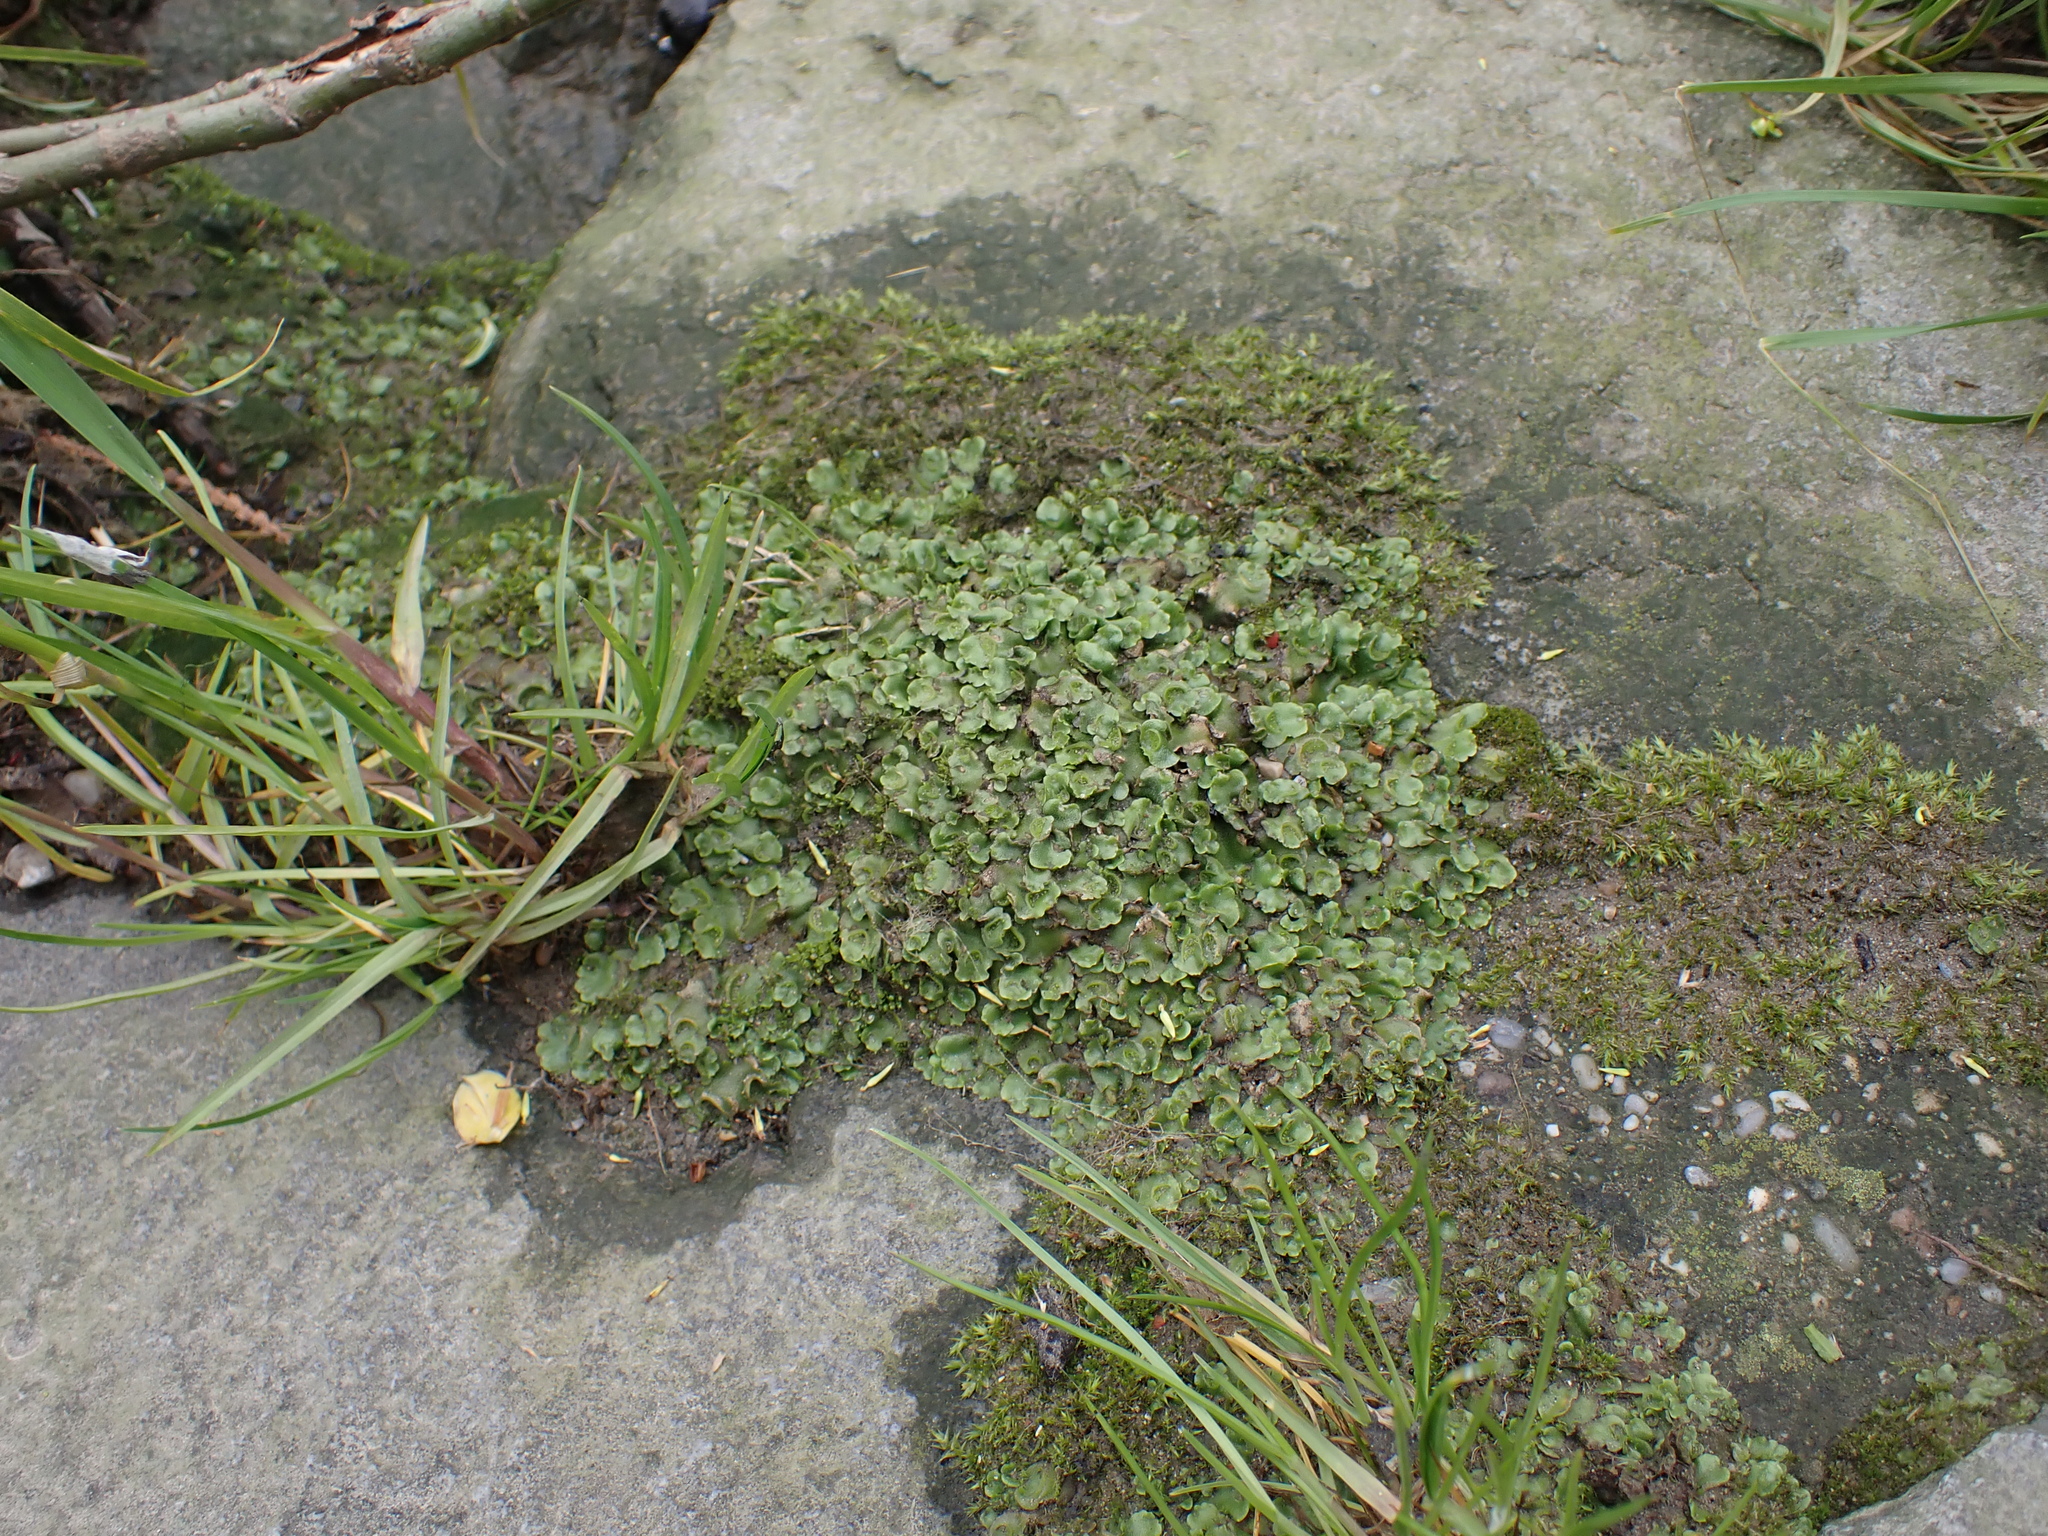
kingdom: Plantae
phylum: Marchantiophyta
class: Marchantiopsida
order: Lunulariales
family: Lunulariaceae
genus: Lunularia
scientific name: Lunularia cruciata
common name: Crescent-cup liverwort
